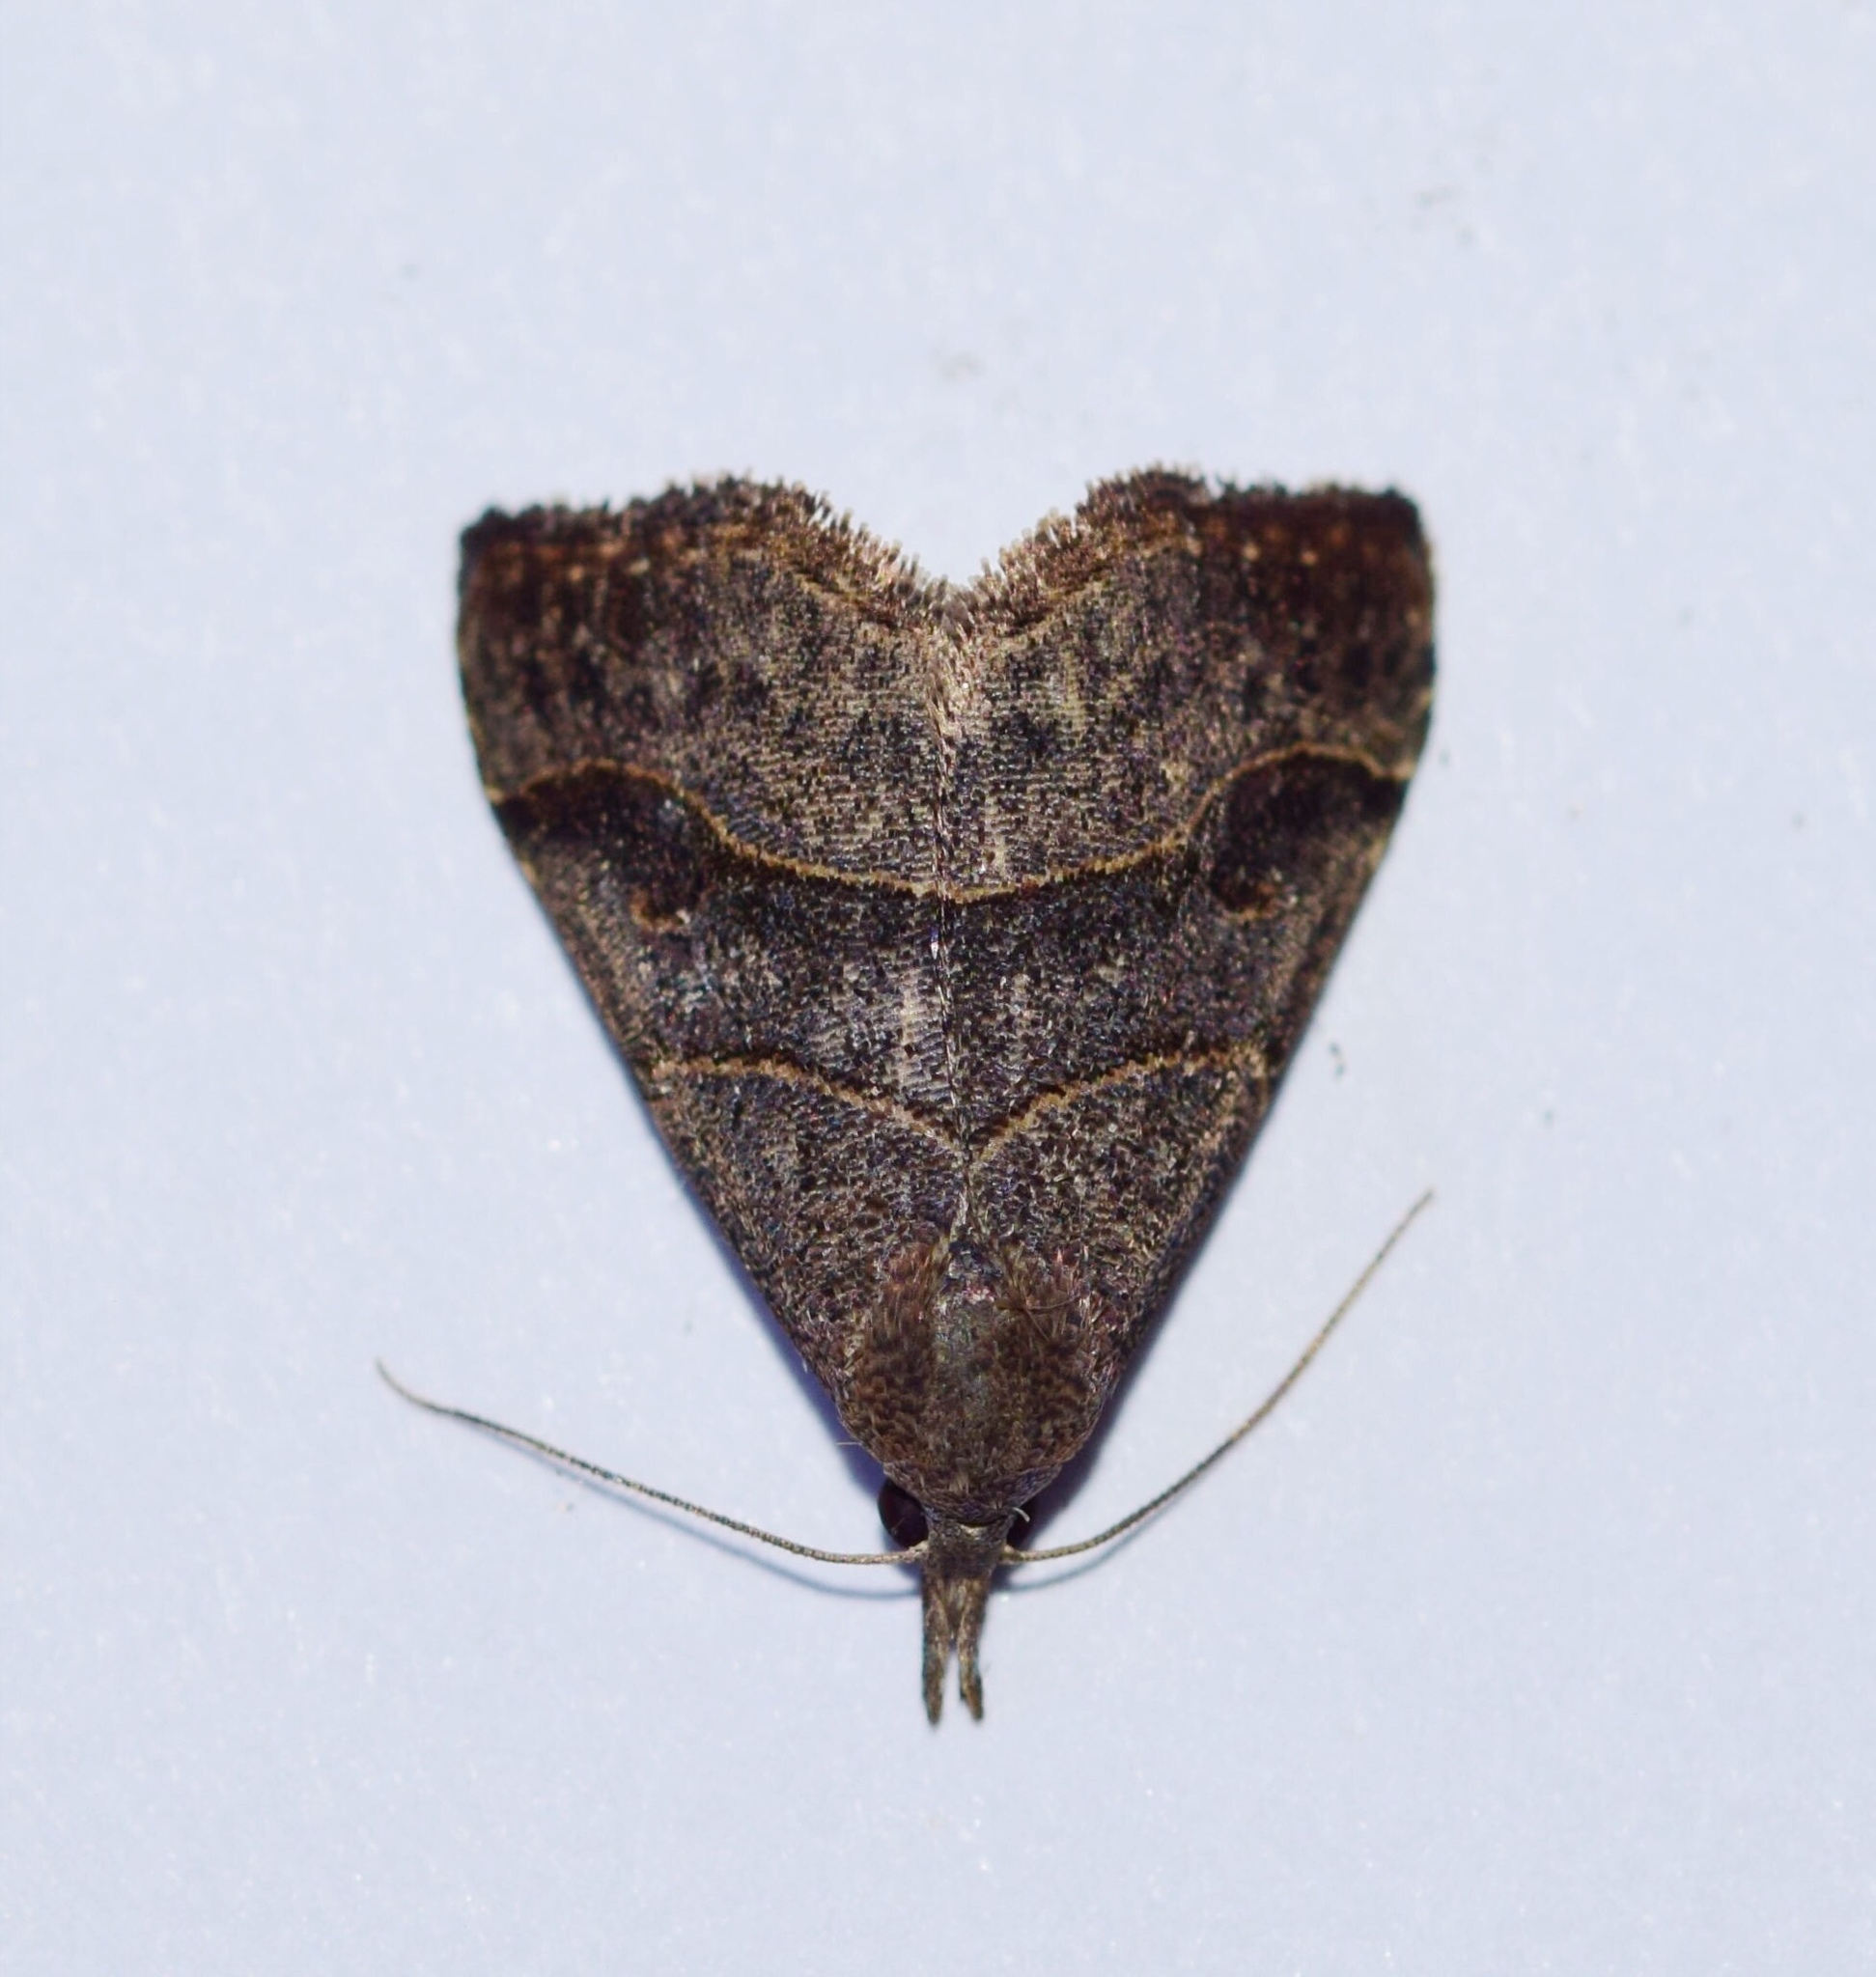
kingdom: Animalia
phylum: Arthropoda
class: Insecta
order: Lepidoptera
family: Erebidae
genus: Bertula
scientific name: Bertula inconspicua
